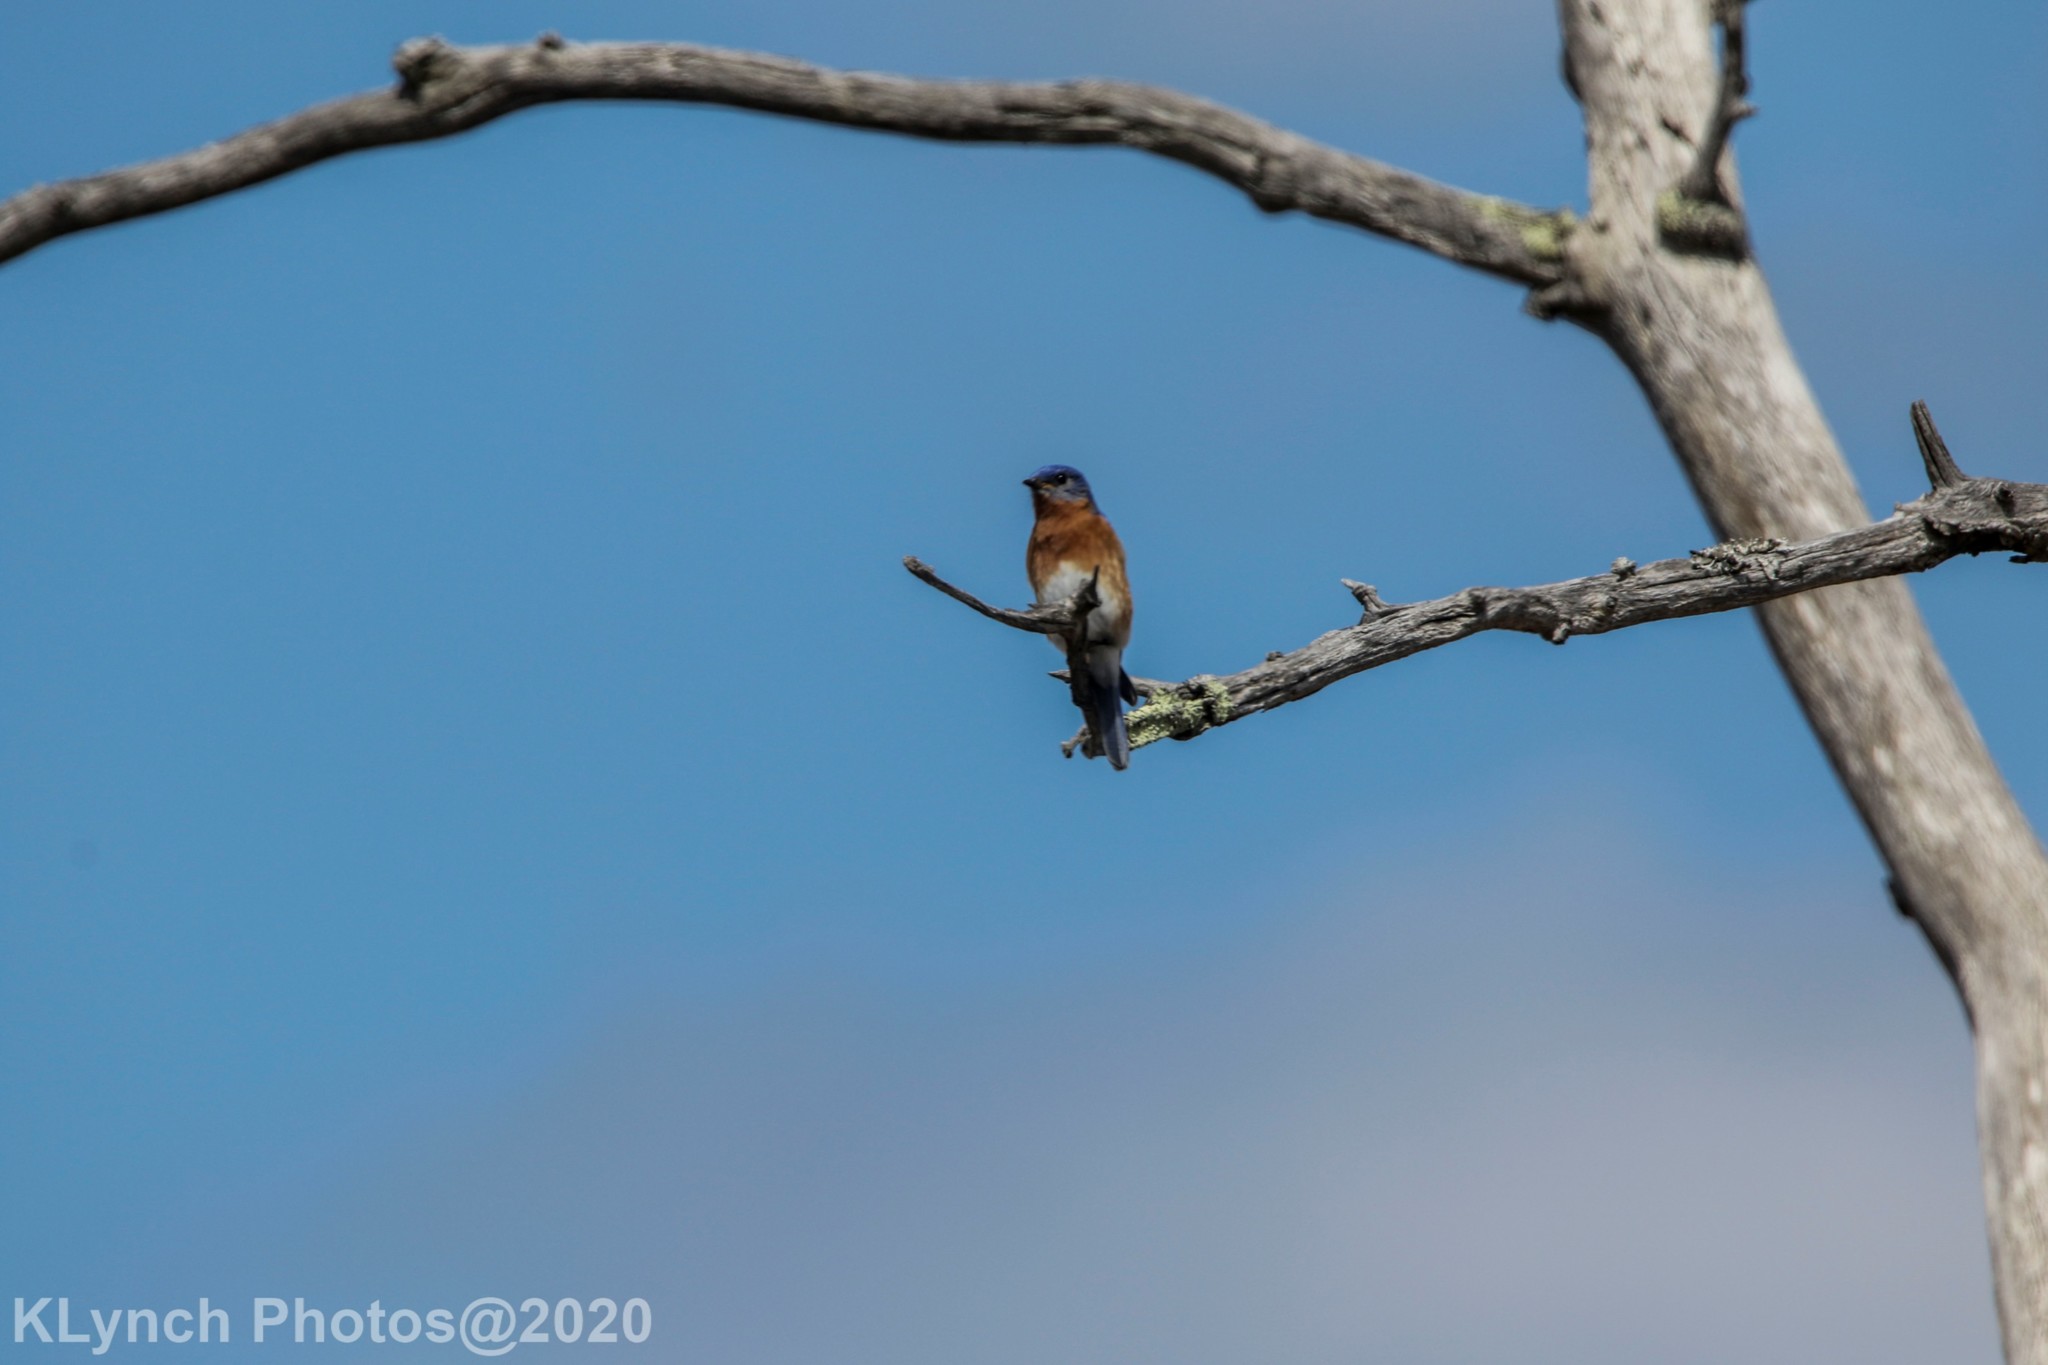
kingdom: Animalia
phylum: Chordata
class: Aves
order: Passeriformes
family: Turdidae
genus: Sialia
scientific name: Sialia sialis
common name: Eastern bluebird
